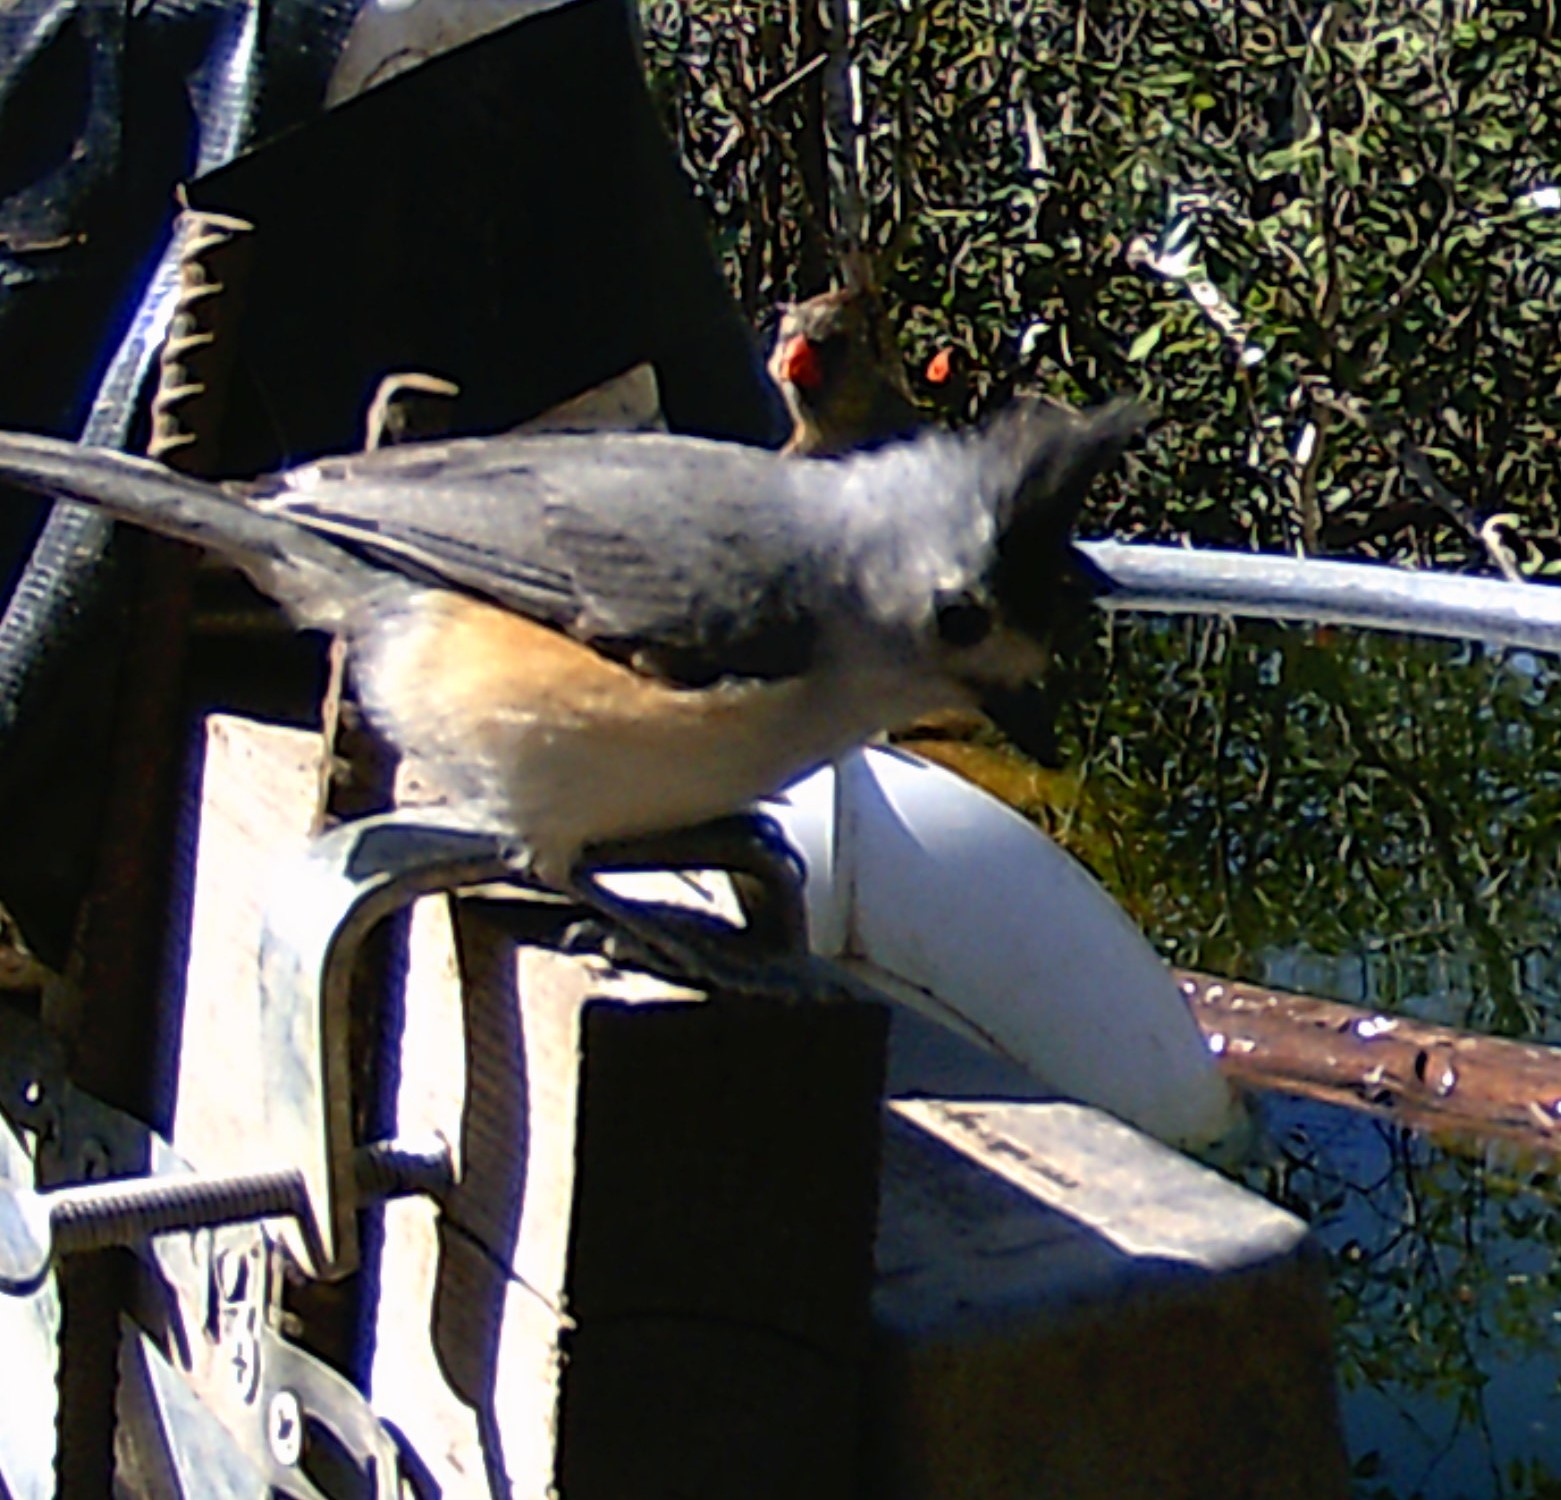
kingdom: Animalia
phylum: Chordata
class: Aves
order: Passeriformes
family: Paridae
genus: Baeolophus
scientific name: Baeolophus atricristatus
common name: Black-crested titmouse
